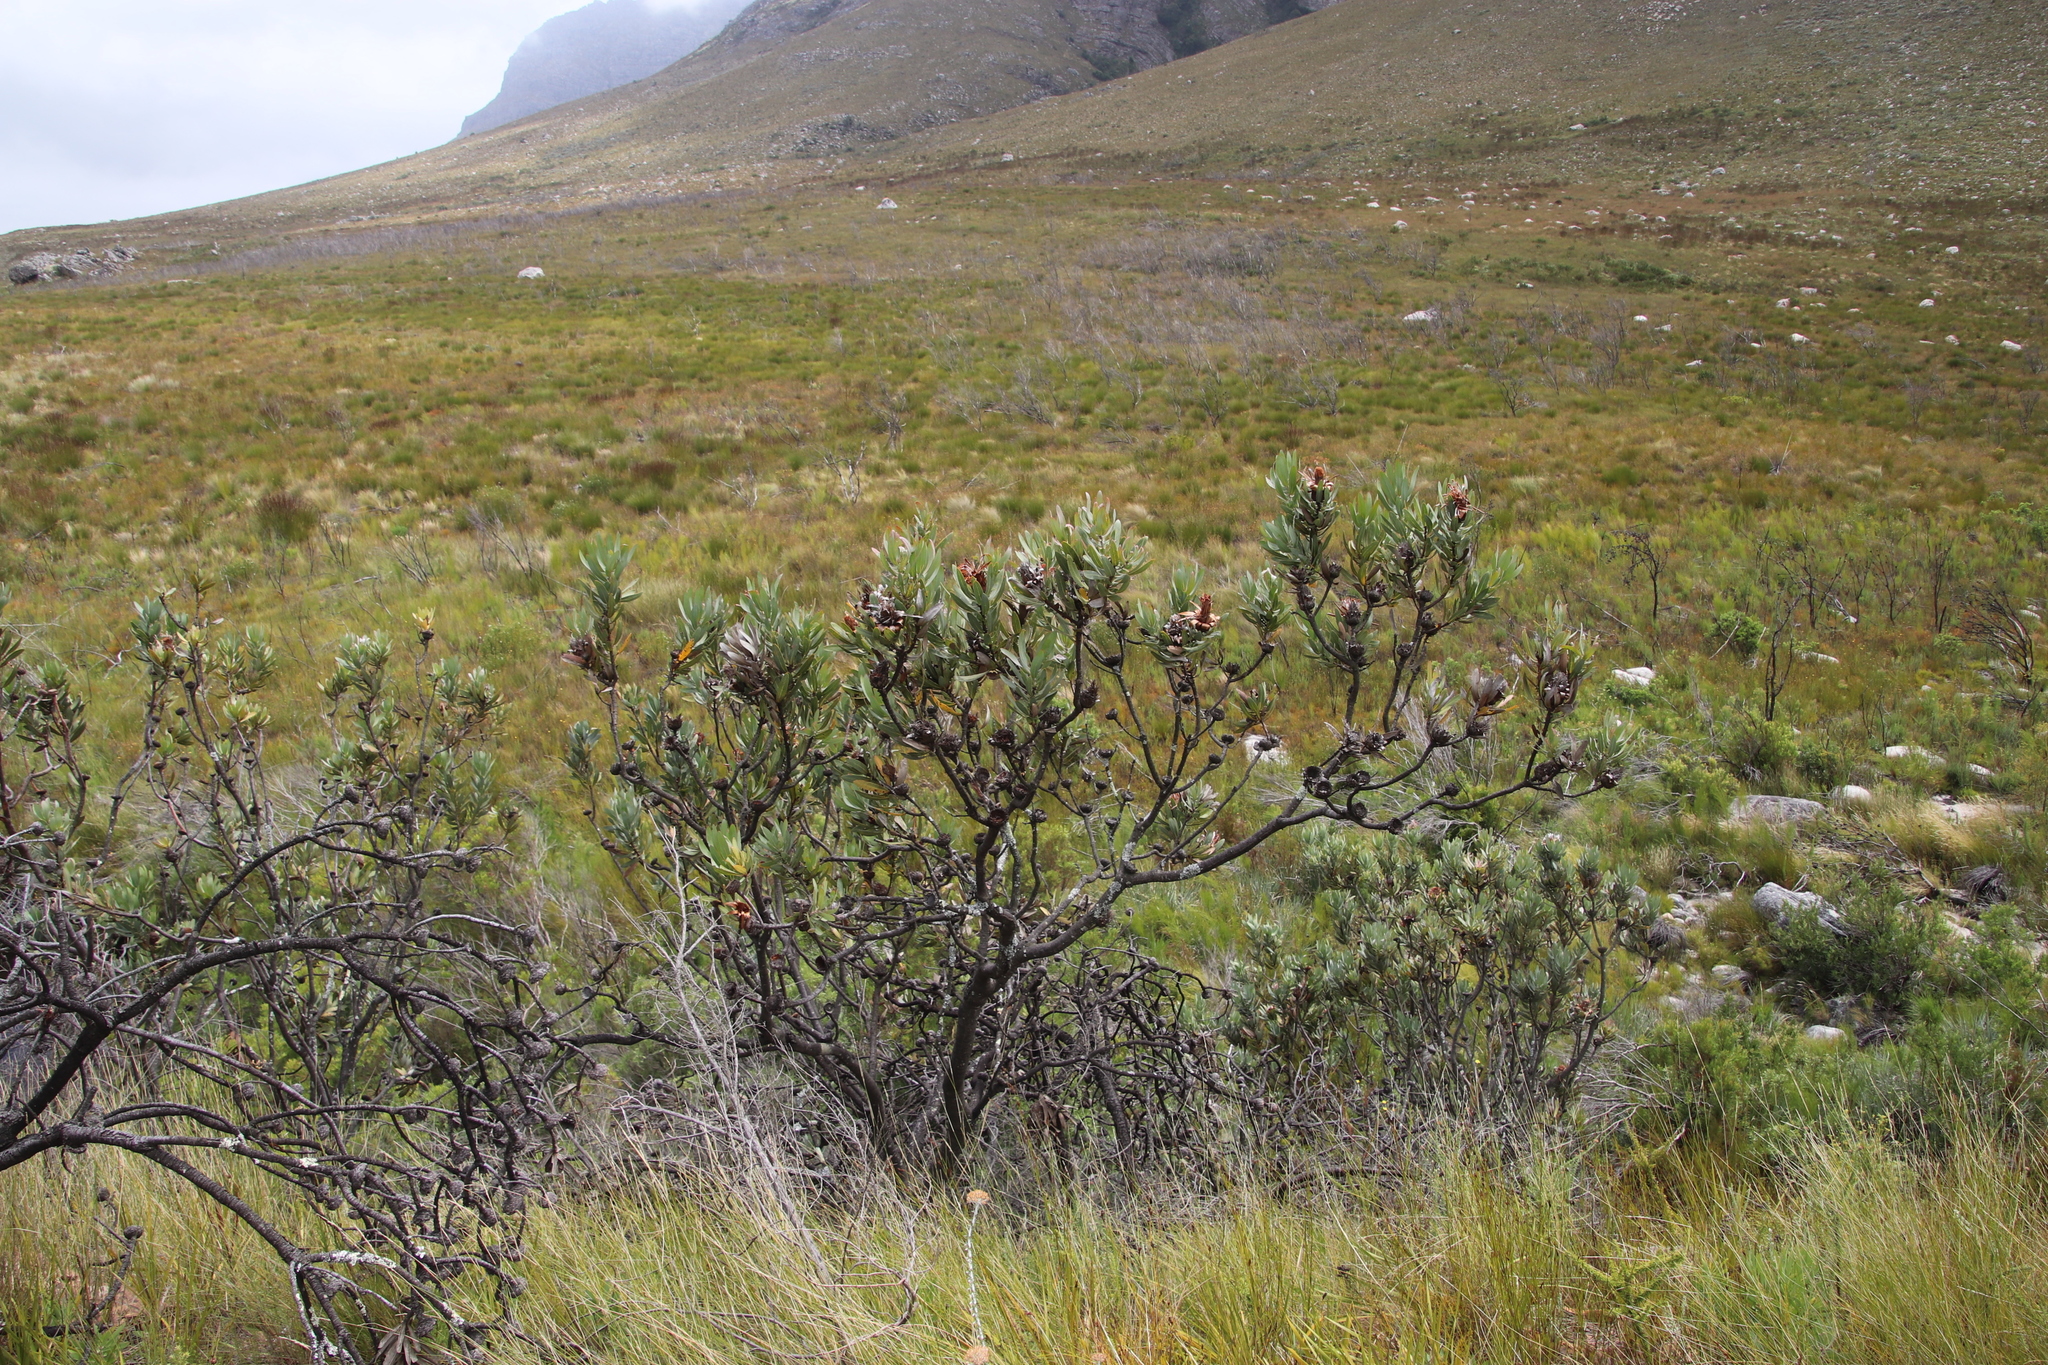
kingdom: Plantae
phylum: Tracheophyta
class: Magnoliopsida
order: Proteales
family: Proteaceae
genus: Protea
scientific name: Protea laurifolia
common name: Grey-leaf sugarbsh
